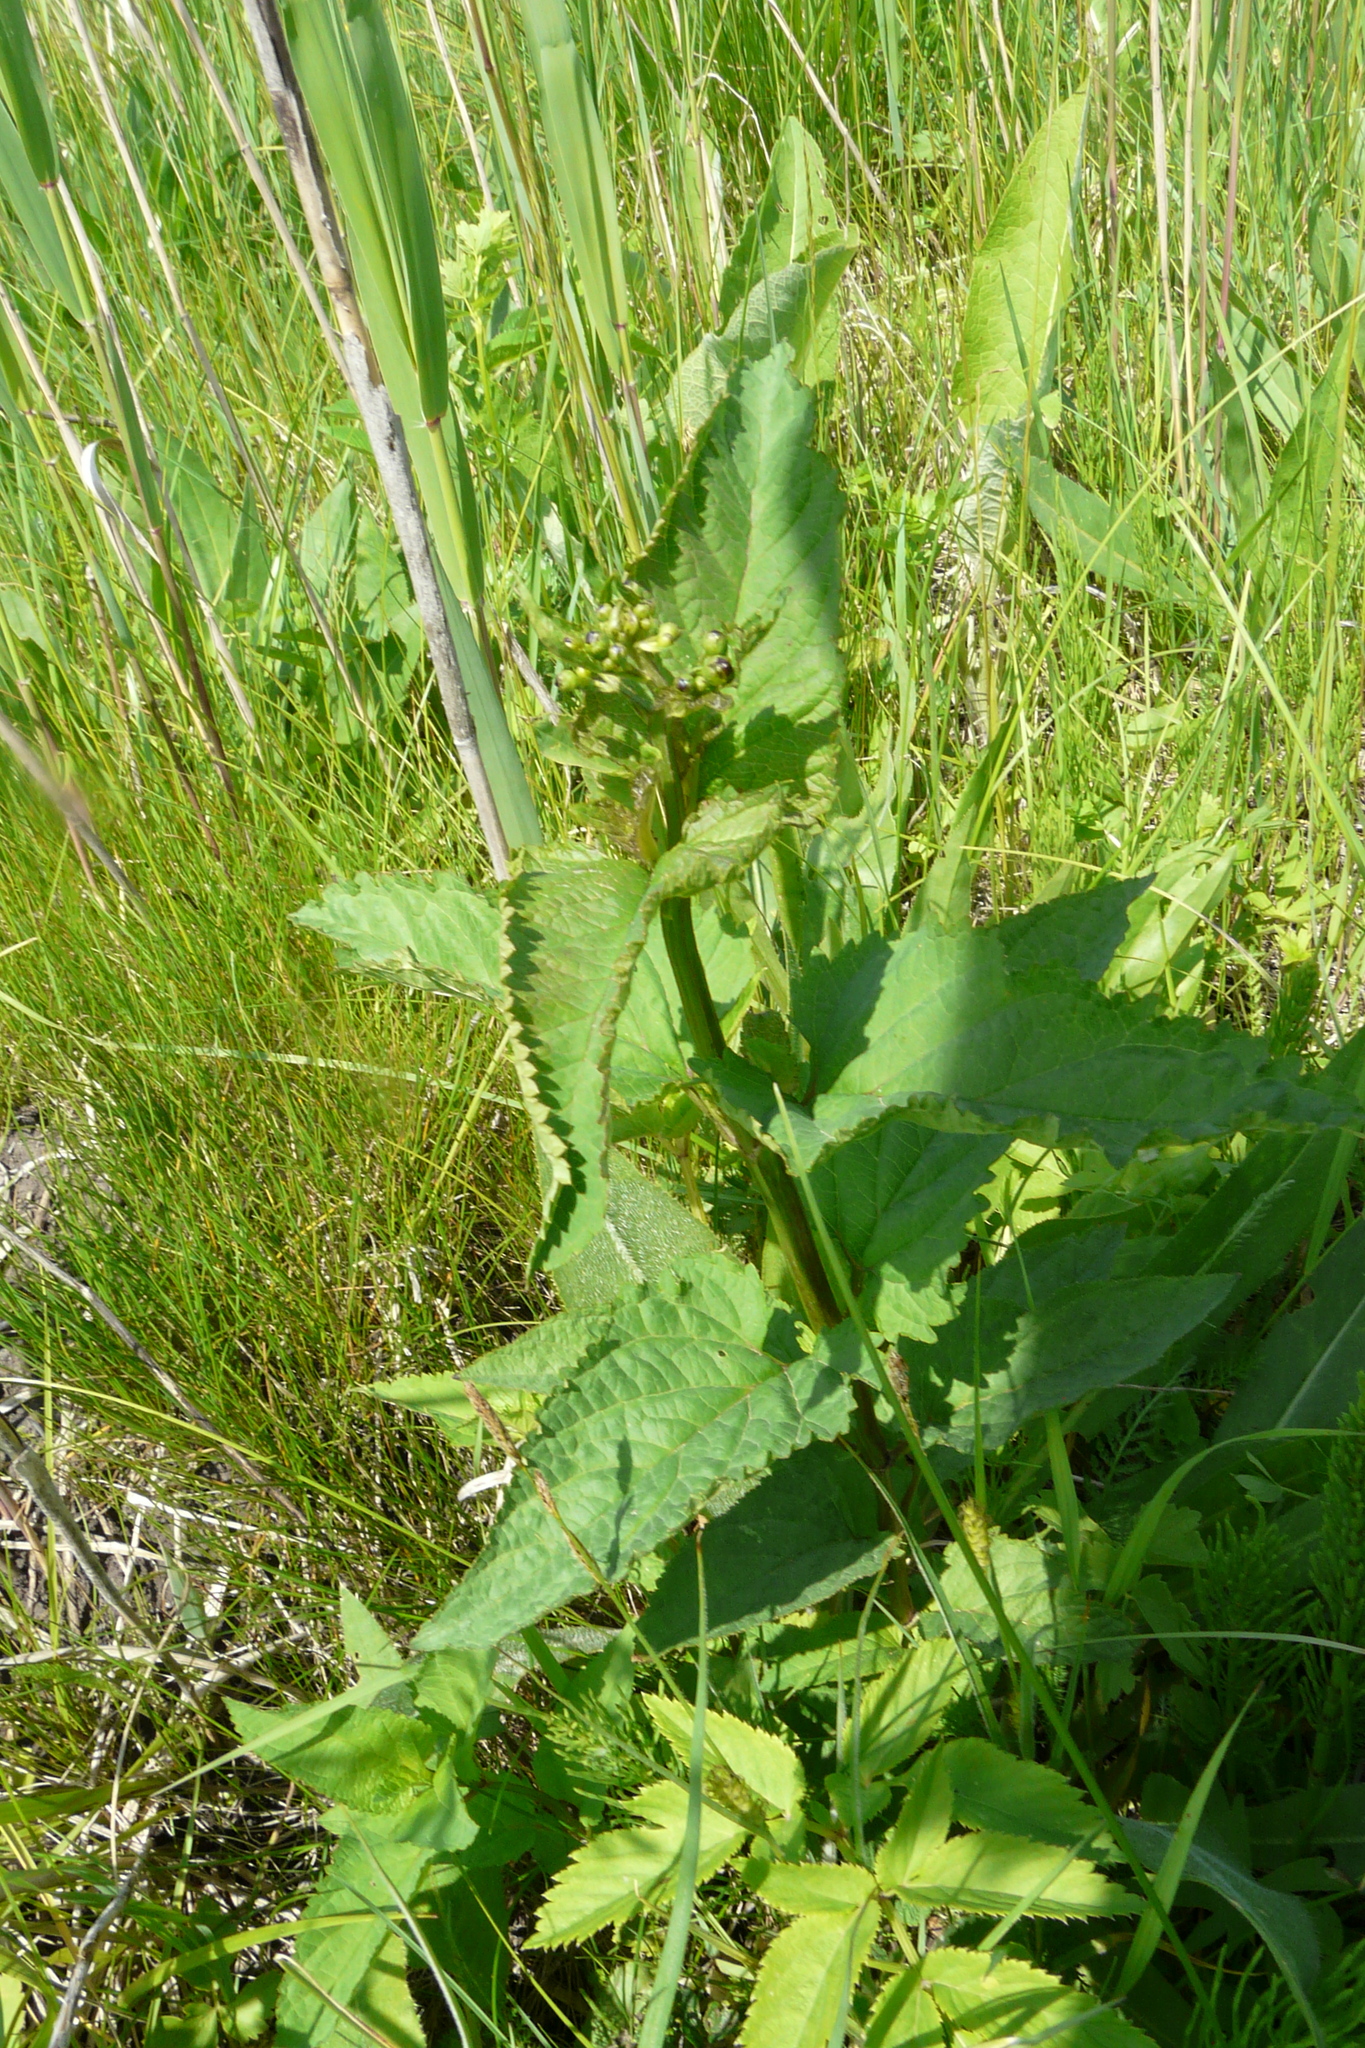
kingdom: Plantae
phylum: Tracheophyta
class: Magnoliopsida
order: Lamiales
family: Scrophulariaceae
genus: Scrophularia
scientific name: Scrophularia nodosa
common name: Common figwort
